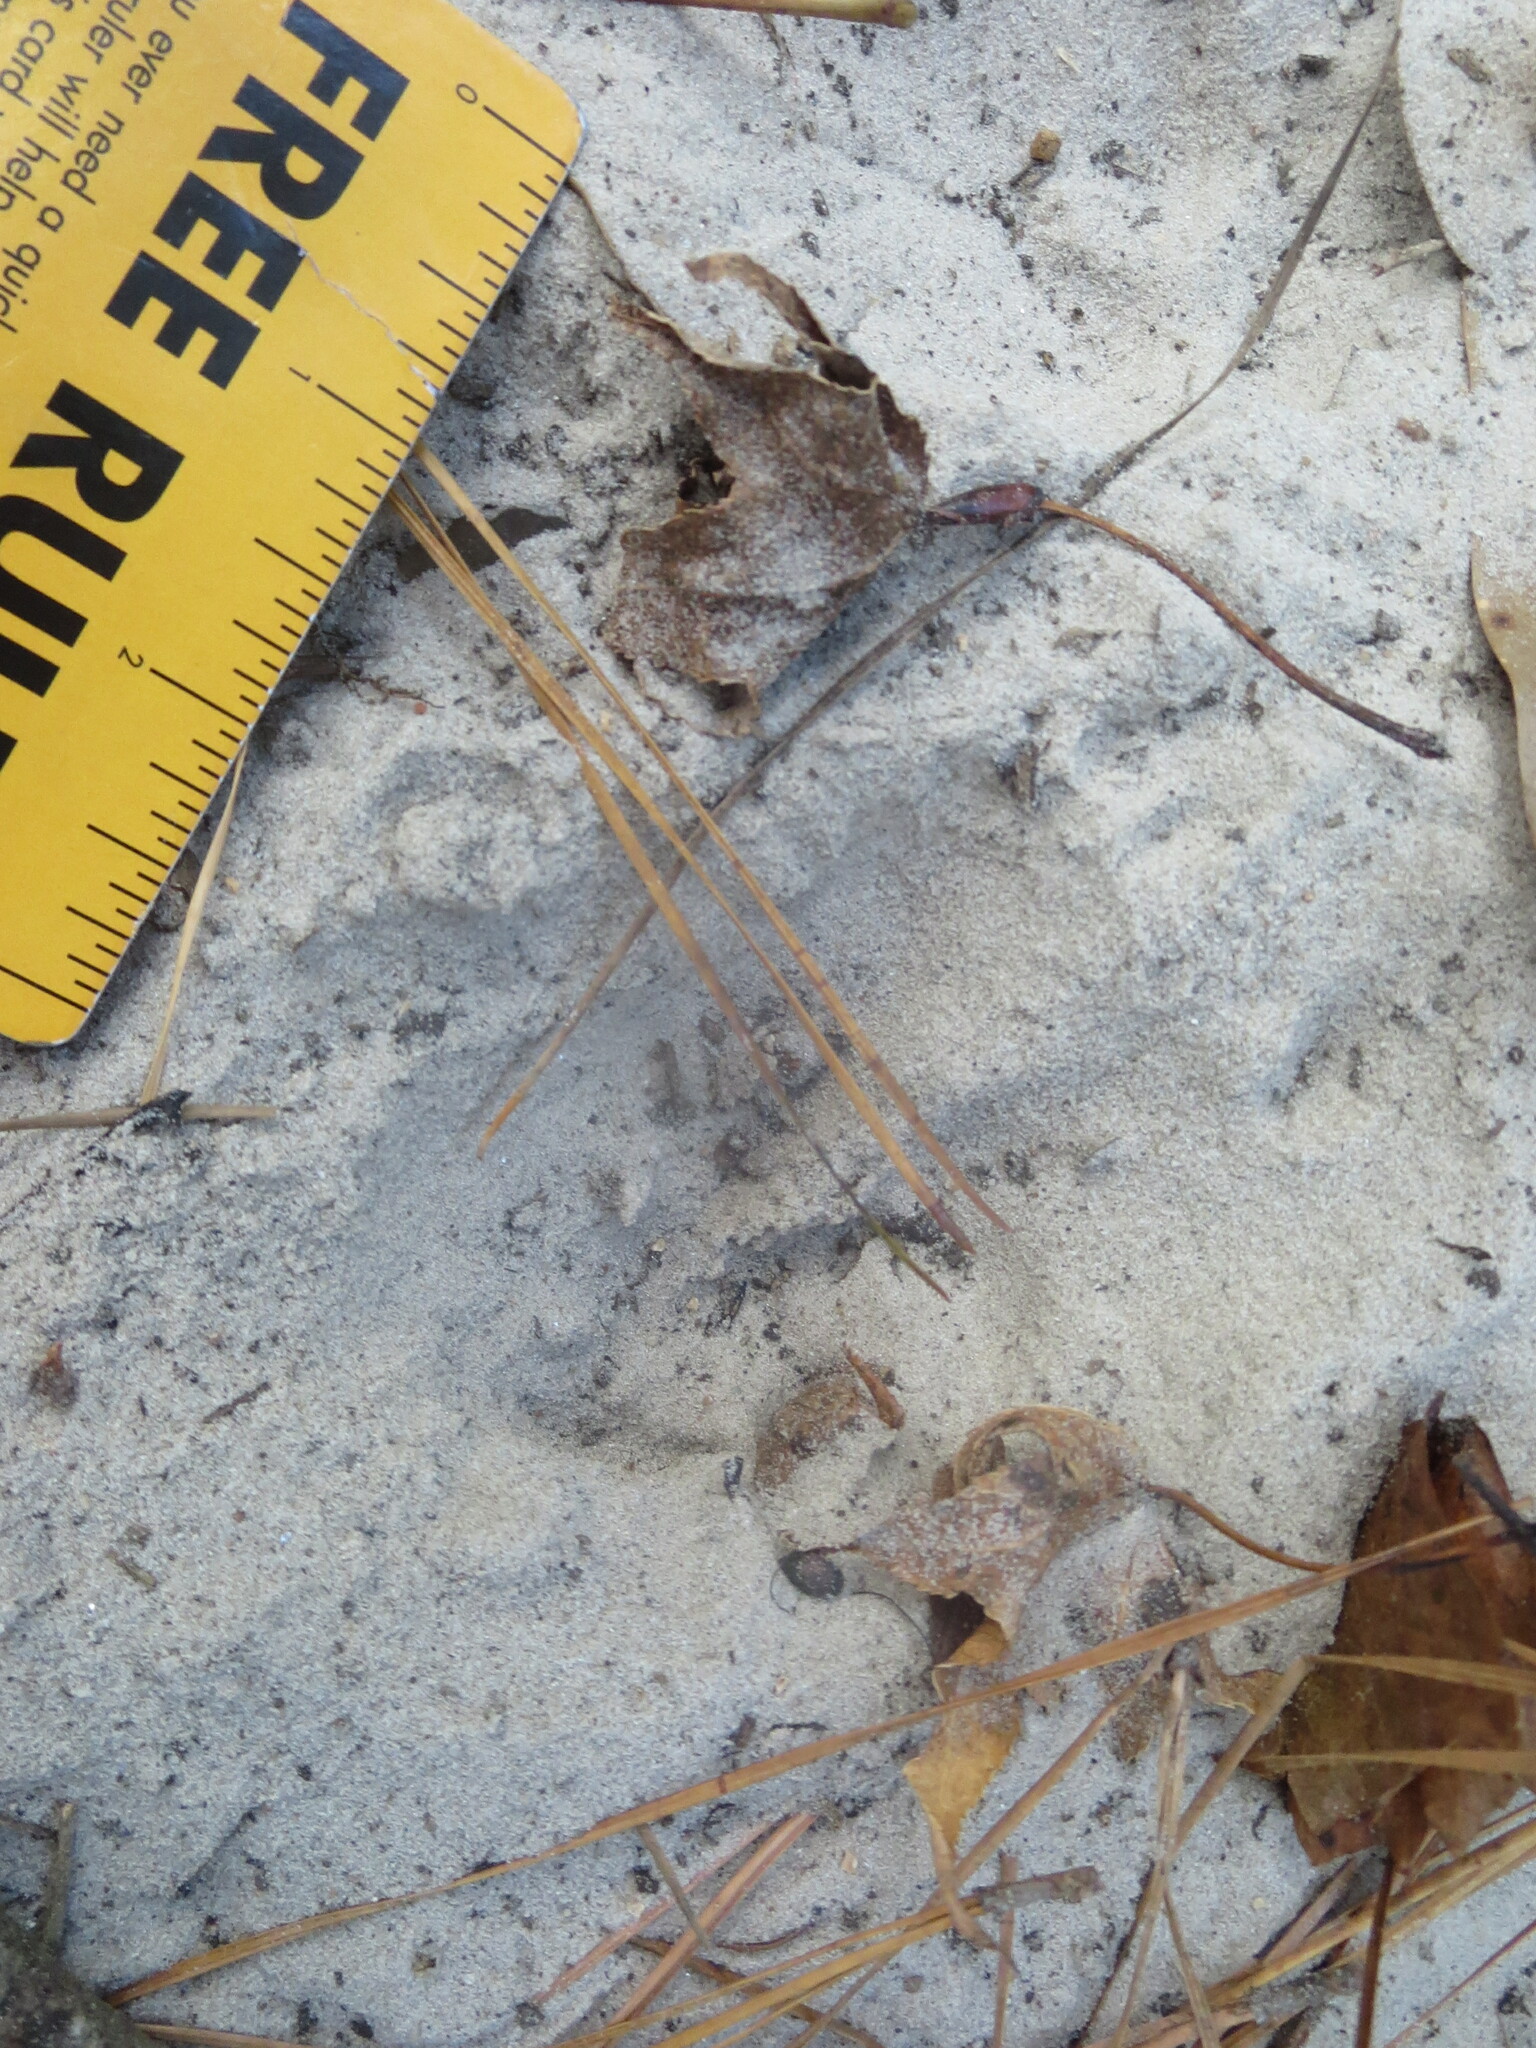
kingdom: Animalia
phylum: Chordata
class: Mammalia
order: Artiodactyla
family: Cervidae
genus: Odocoileus
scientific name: Odocoileus virginianus
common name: White-tailed deer
